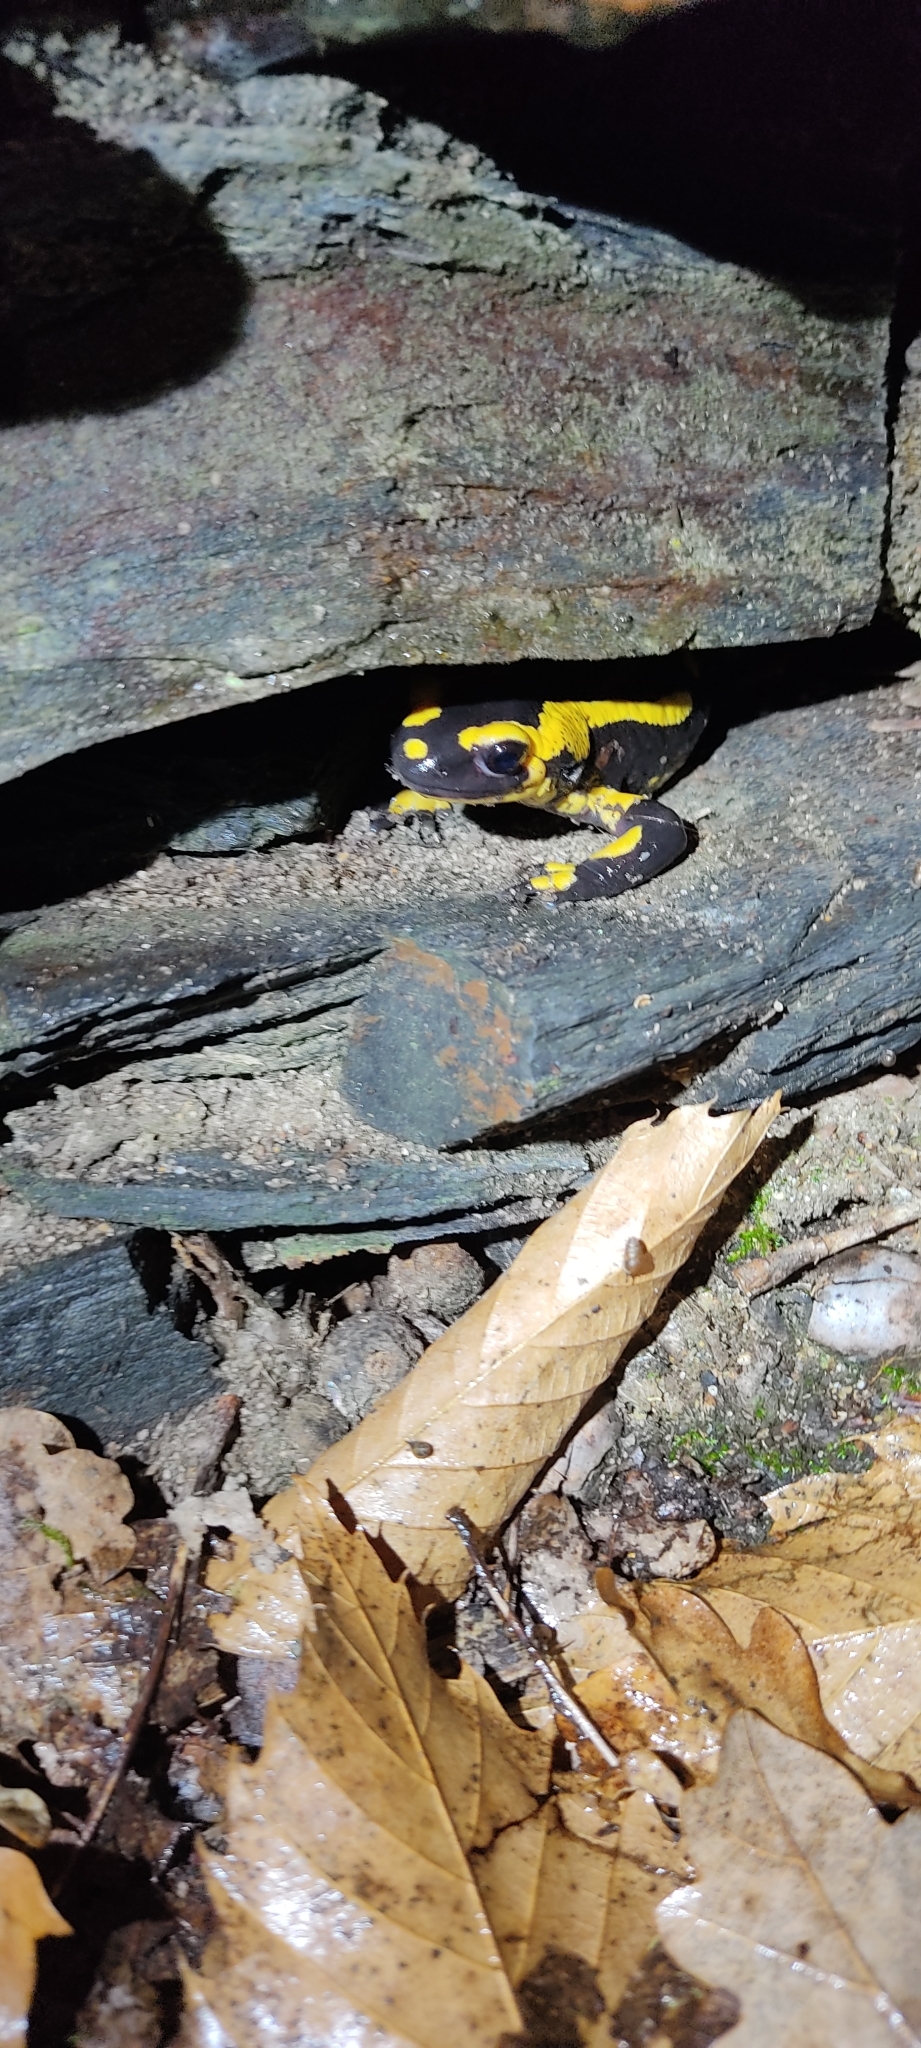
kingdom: Animalia
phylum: Chordata
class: Amphibia
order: Caudata
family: Salamandridae
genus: Salamandra
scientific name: Salamandra salamandra
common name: Fire salamander
